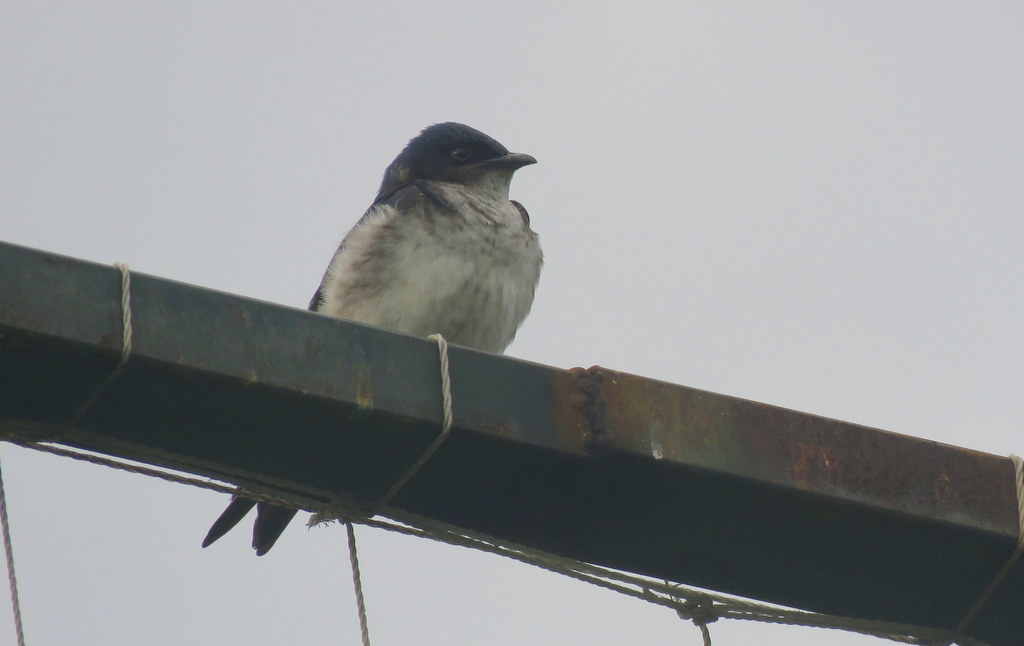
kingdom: Animalia
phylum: Chordata
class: Aves
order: Passeriformes
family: Hirundinidae
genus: Progne
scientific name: Progne chalybea
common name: Grey-breasted martin
